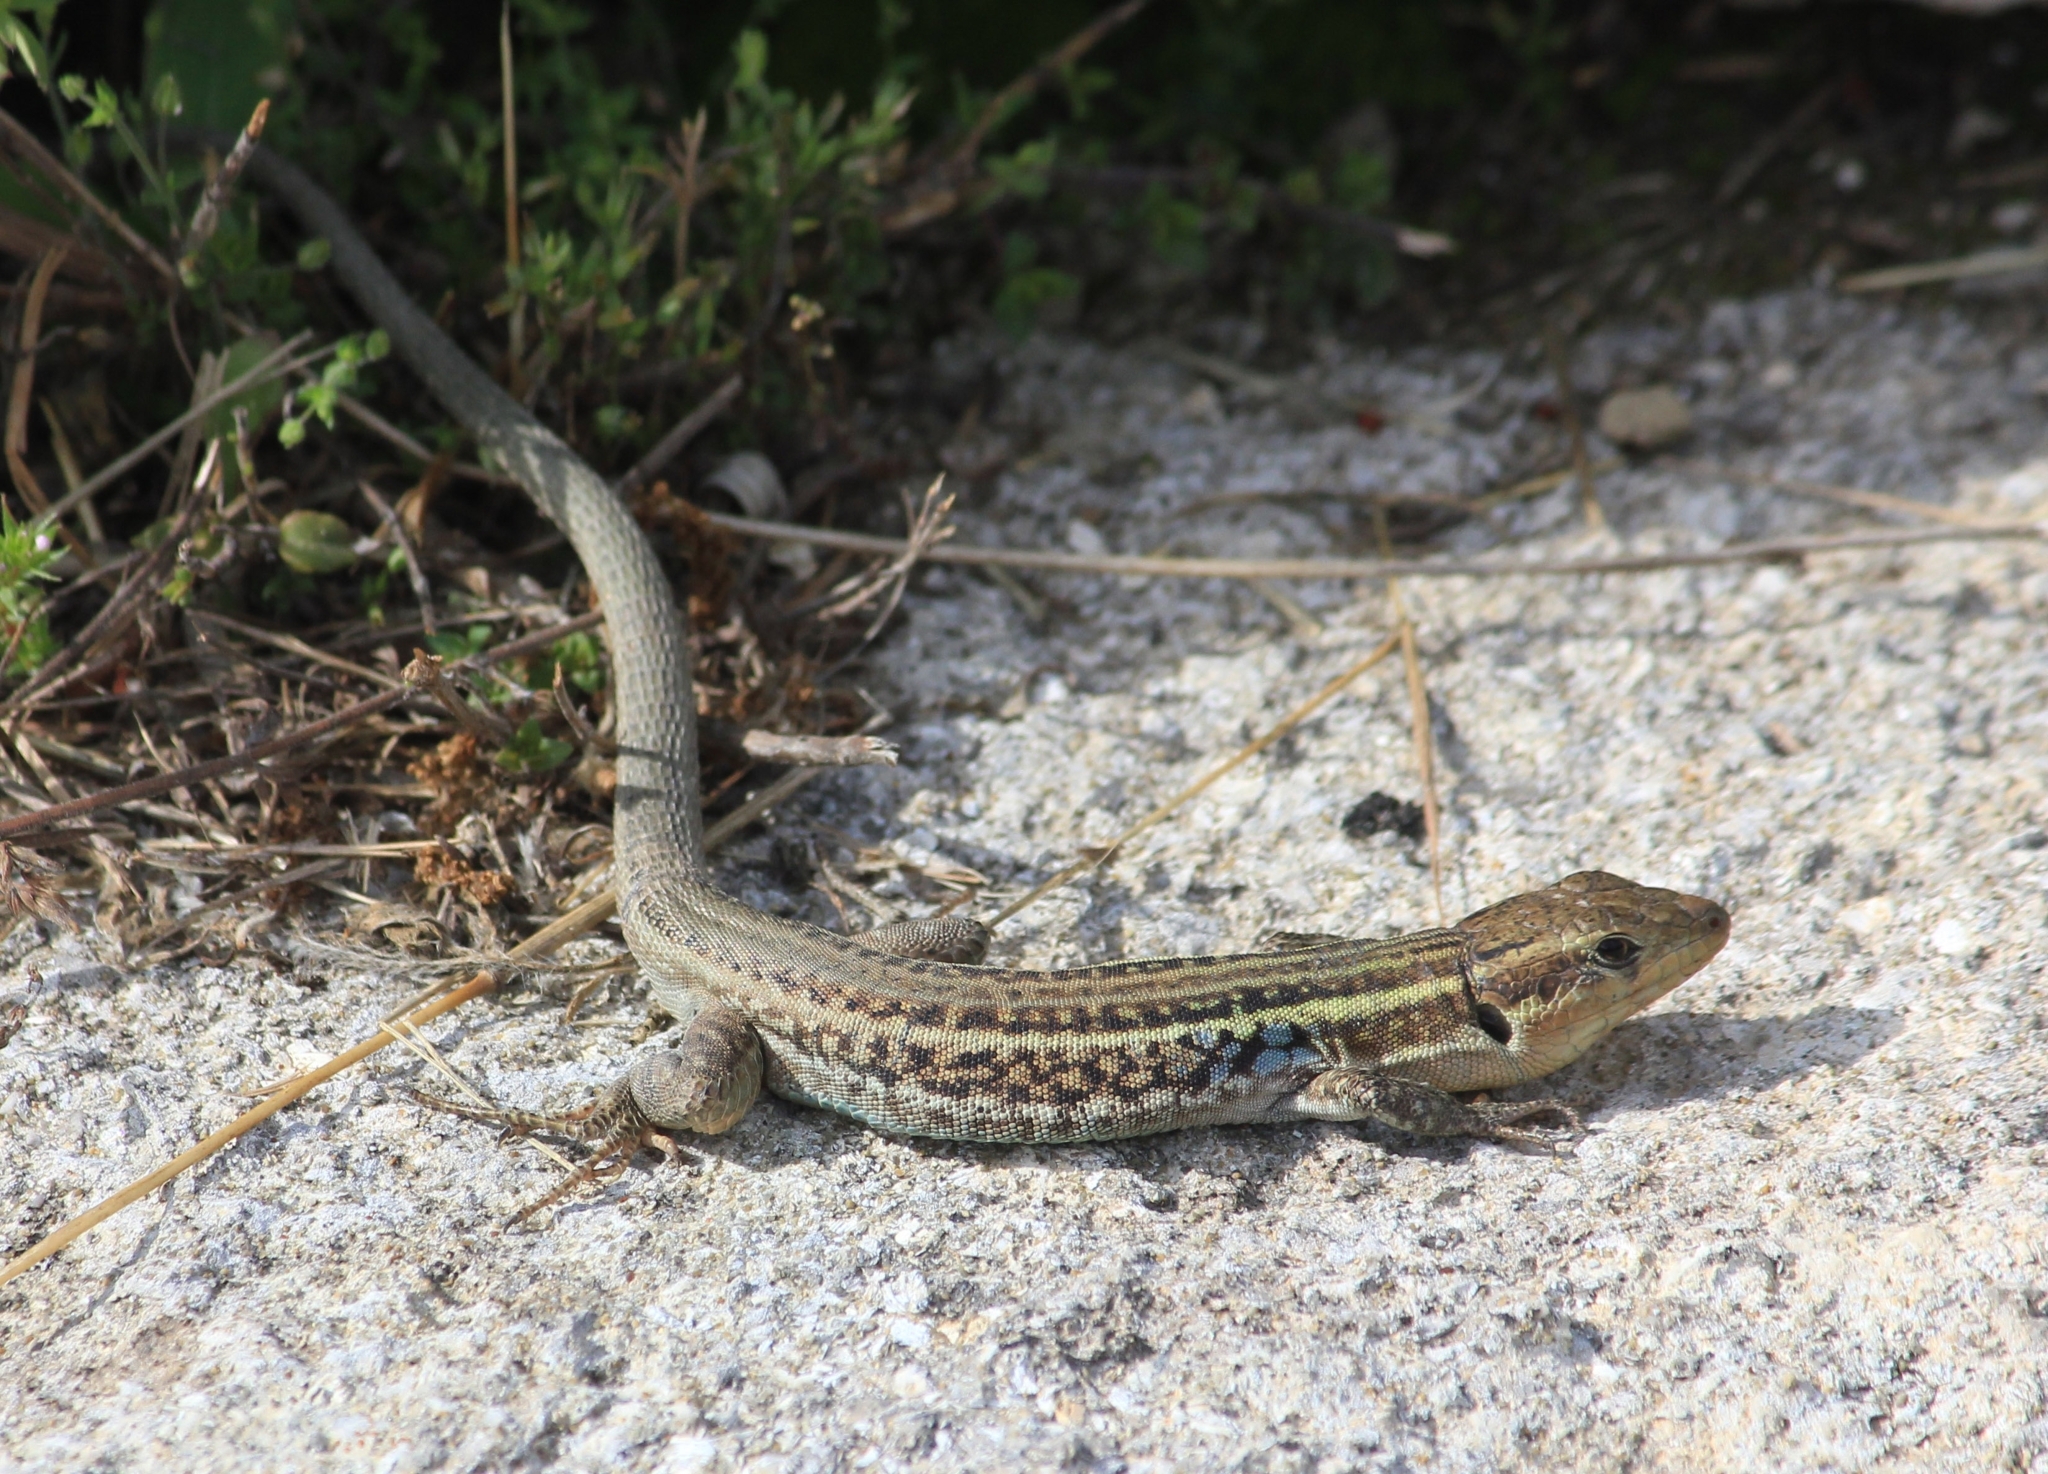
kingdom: Animalia
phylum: Chordata
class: Squamata
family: Lacertidae
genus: Podarcis
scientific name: Podarcis peloponnesiacus
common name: Peloponnese wall lizard
